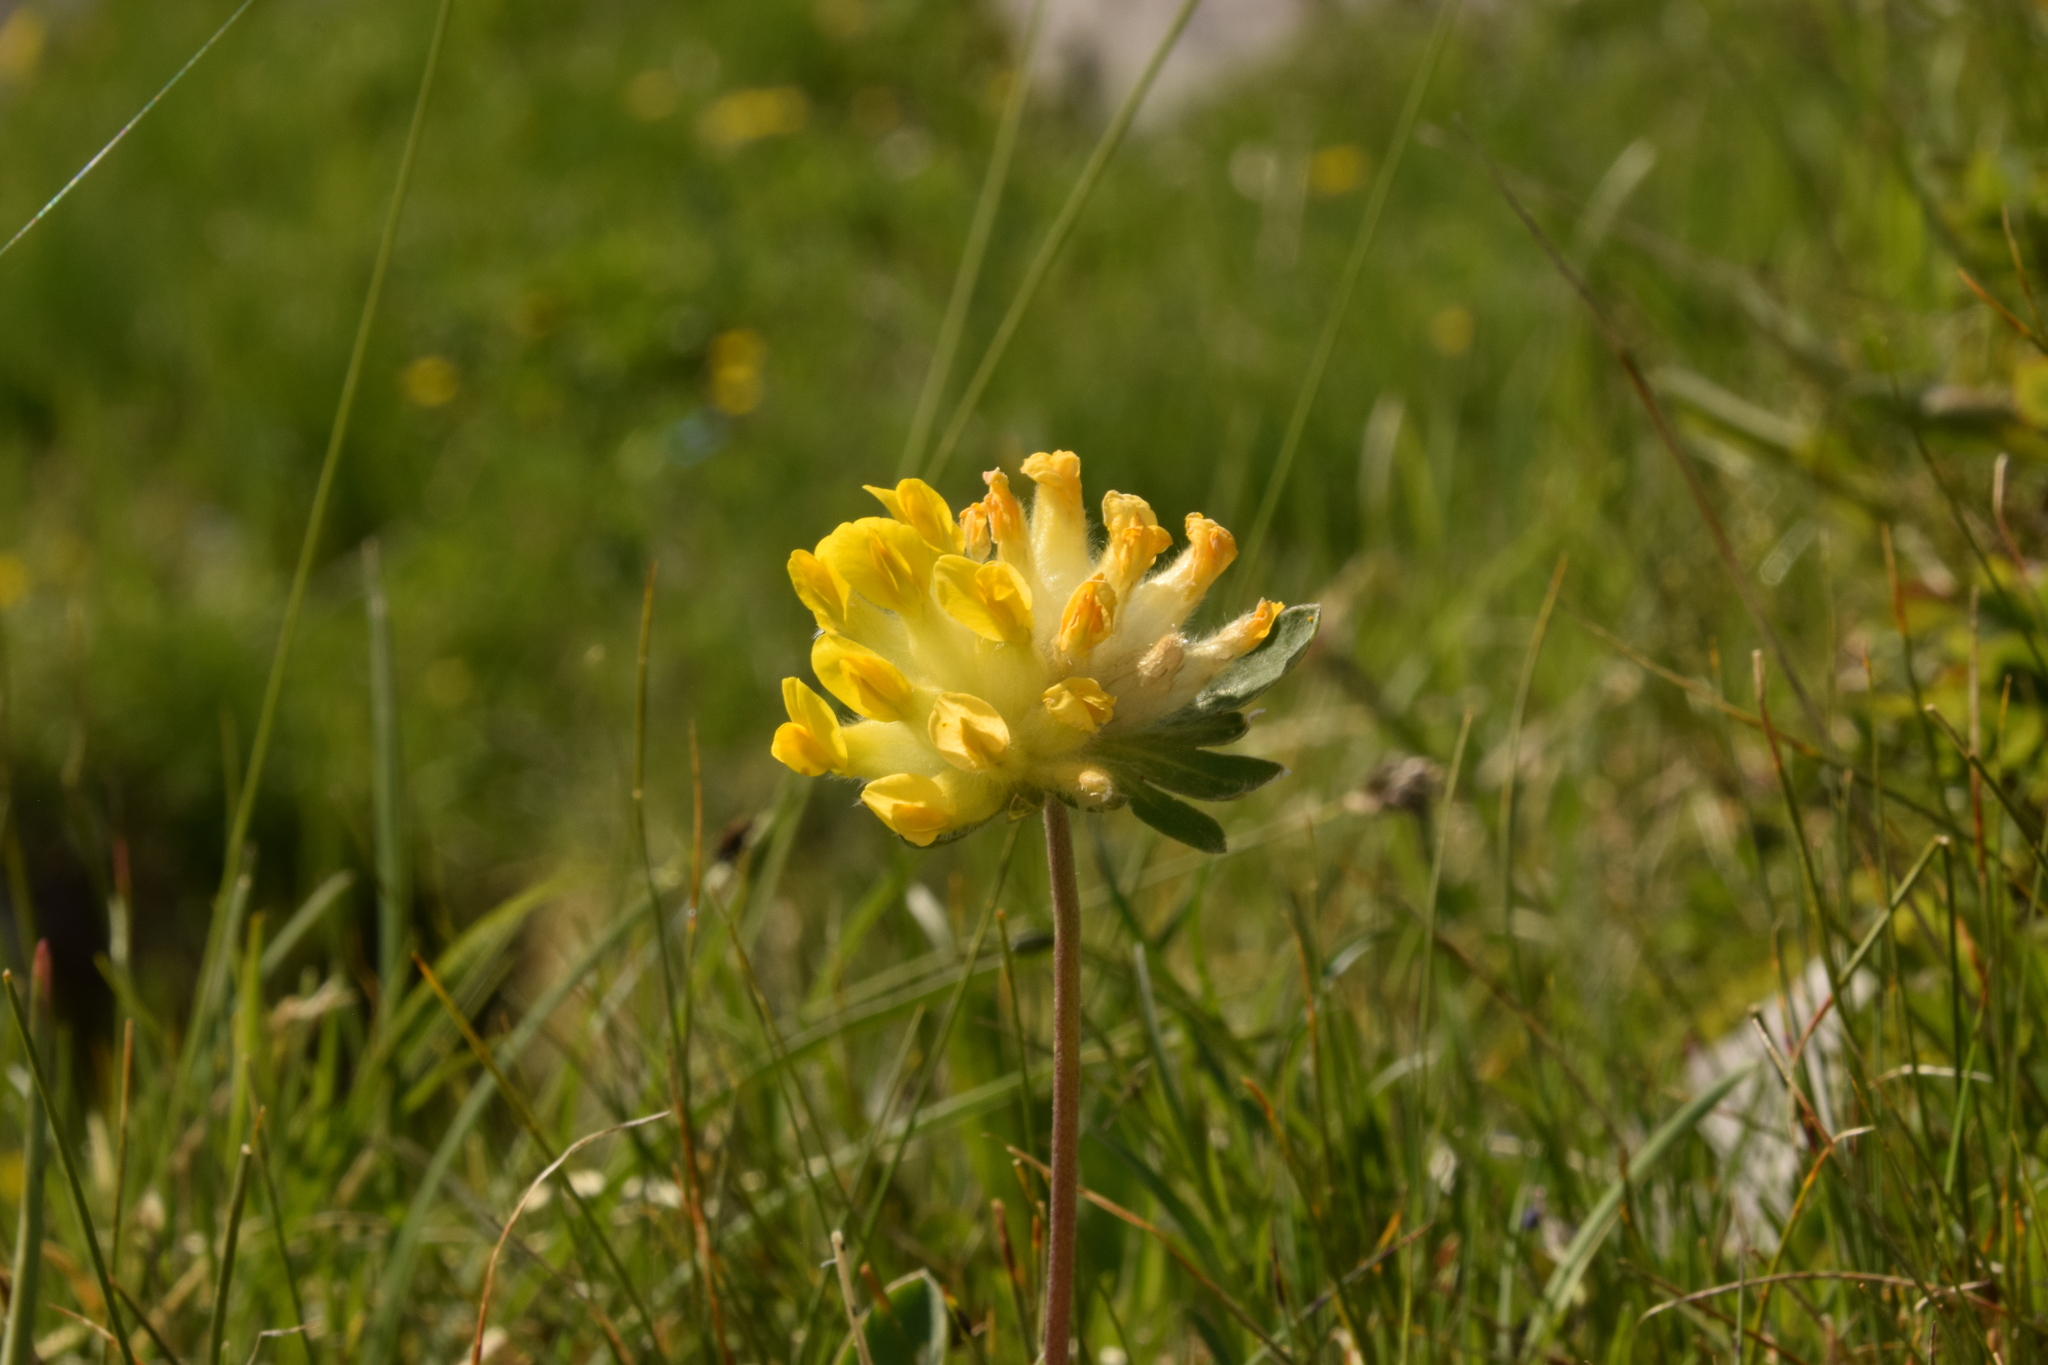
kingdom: Plantae
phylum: Tracheophyta
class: Magnoliopsida
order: Fabales
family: Fabaceae
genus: Anthyllis
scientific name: Anthyllis vulneraria
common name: Kidney vetch
